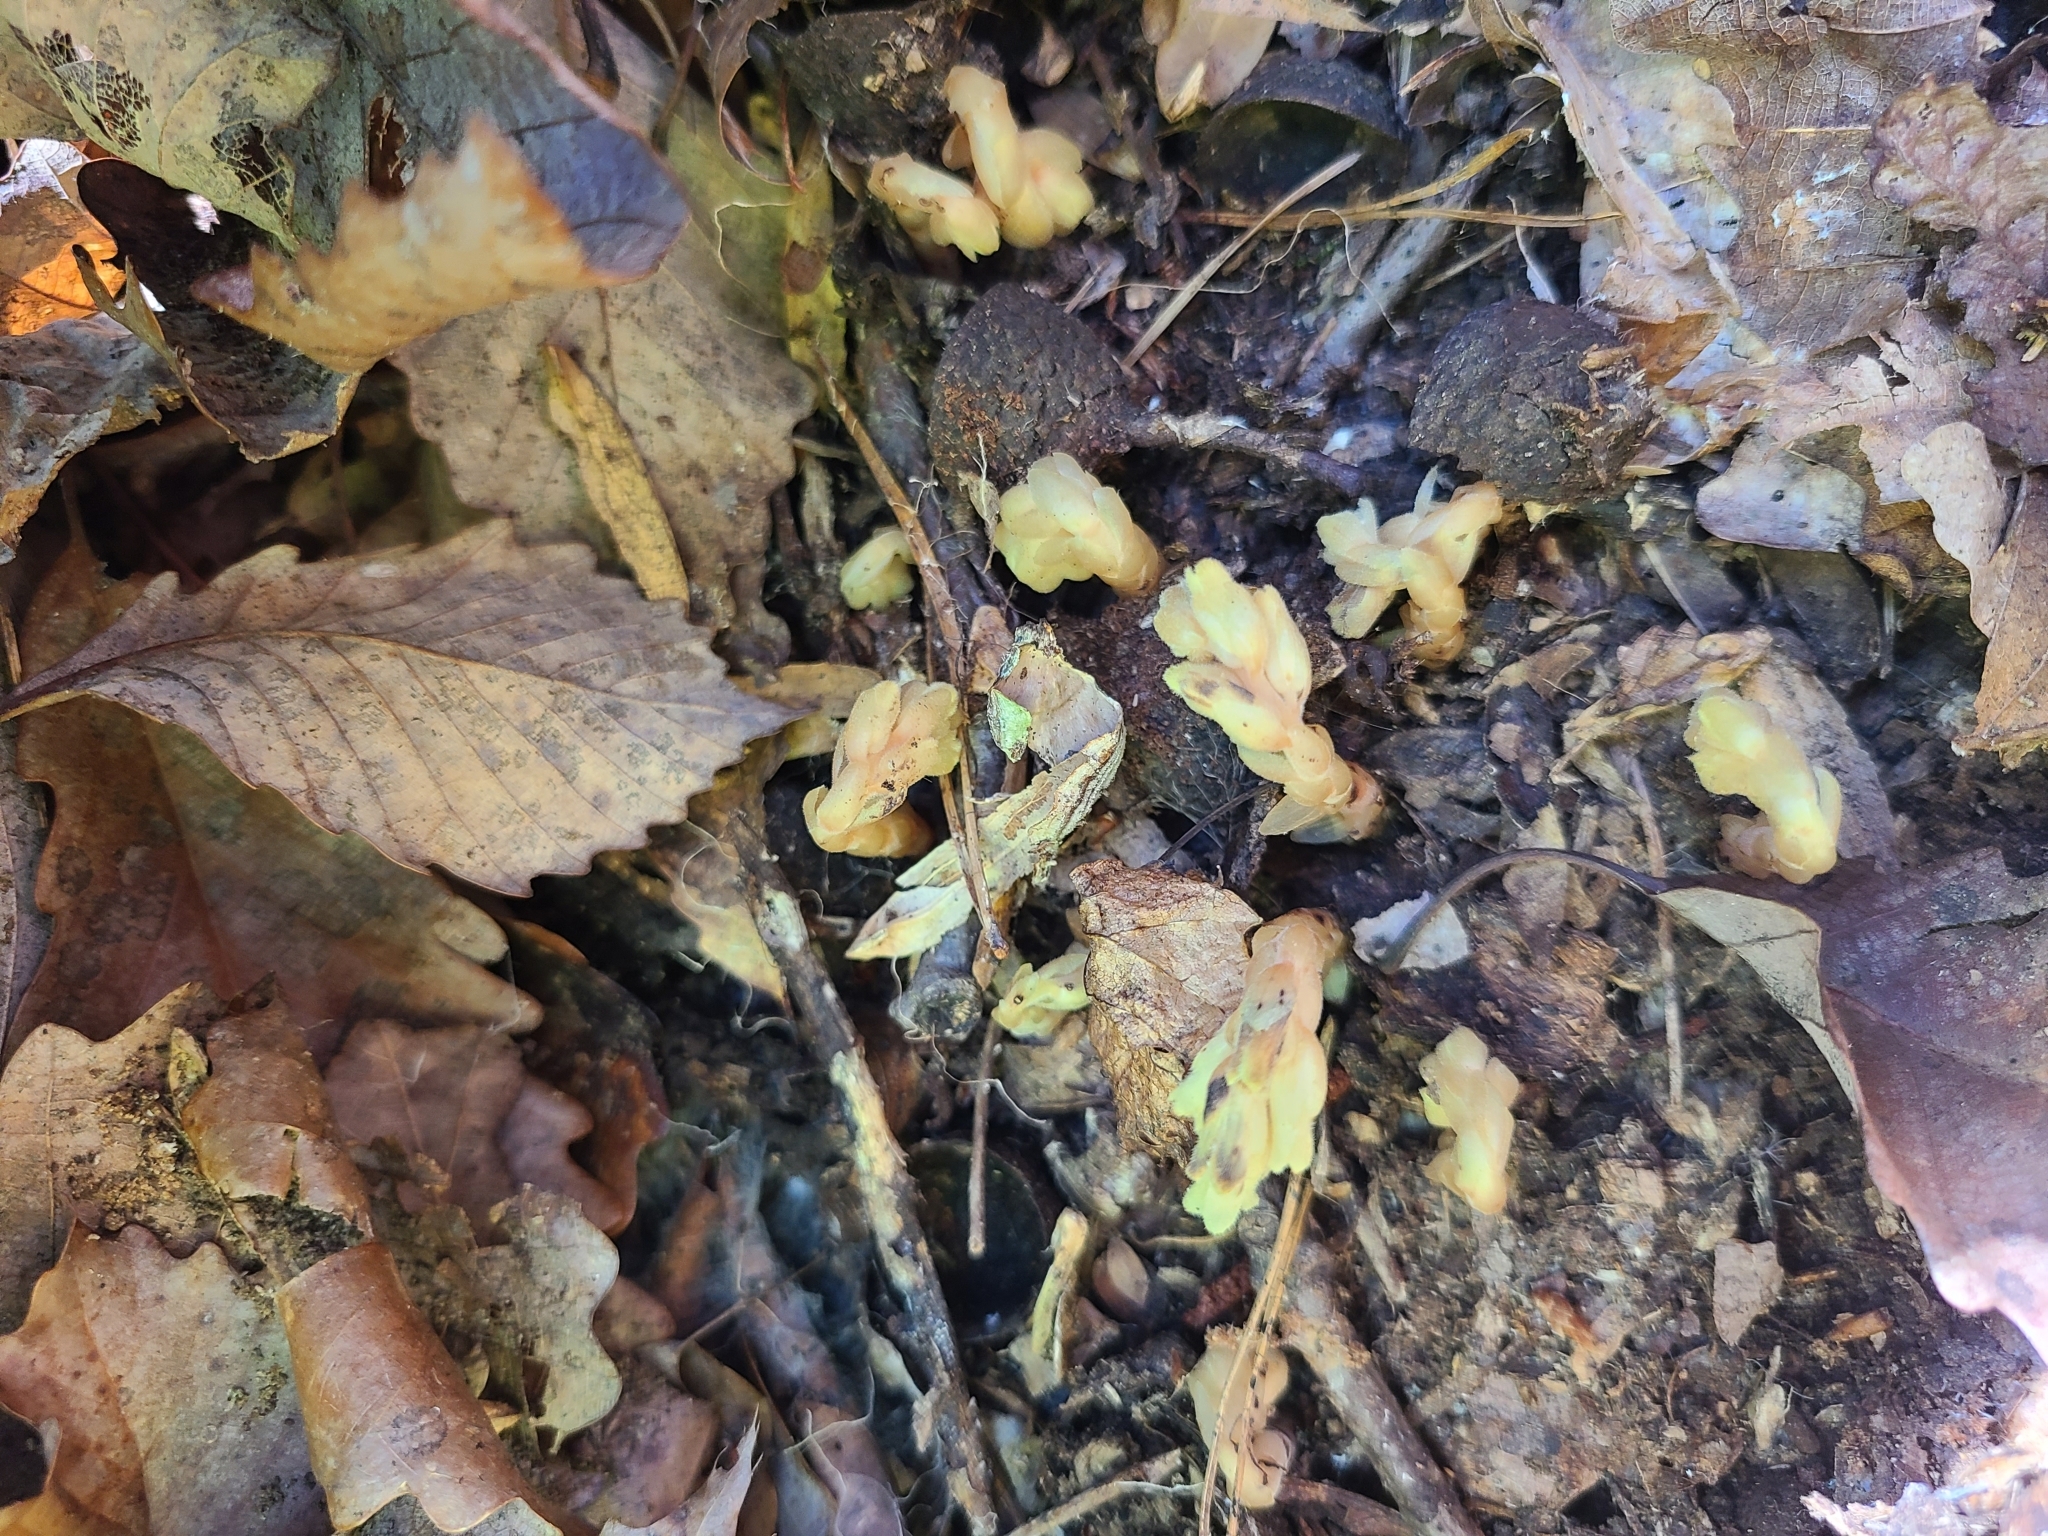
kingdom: Plantae
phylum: Tracheophyta
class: Magnoliopsida
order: Ericales
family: Ericaceae
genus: Hypopitys
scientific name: Hypopitys monotropa
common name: Yellow bird's-nest
